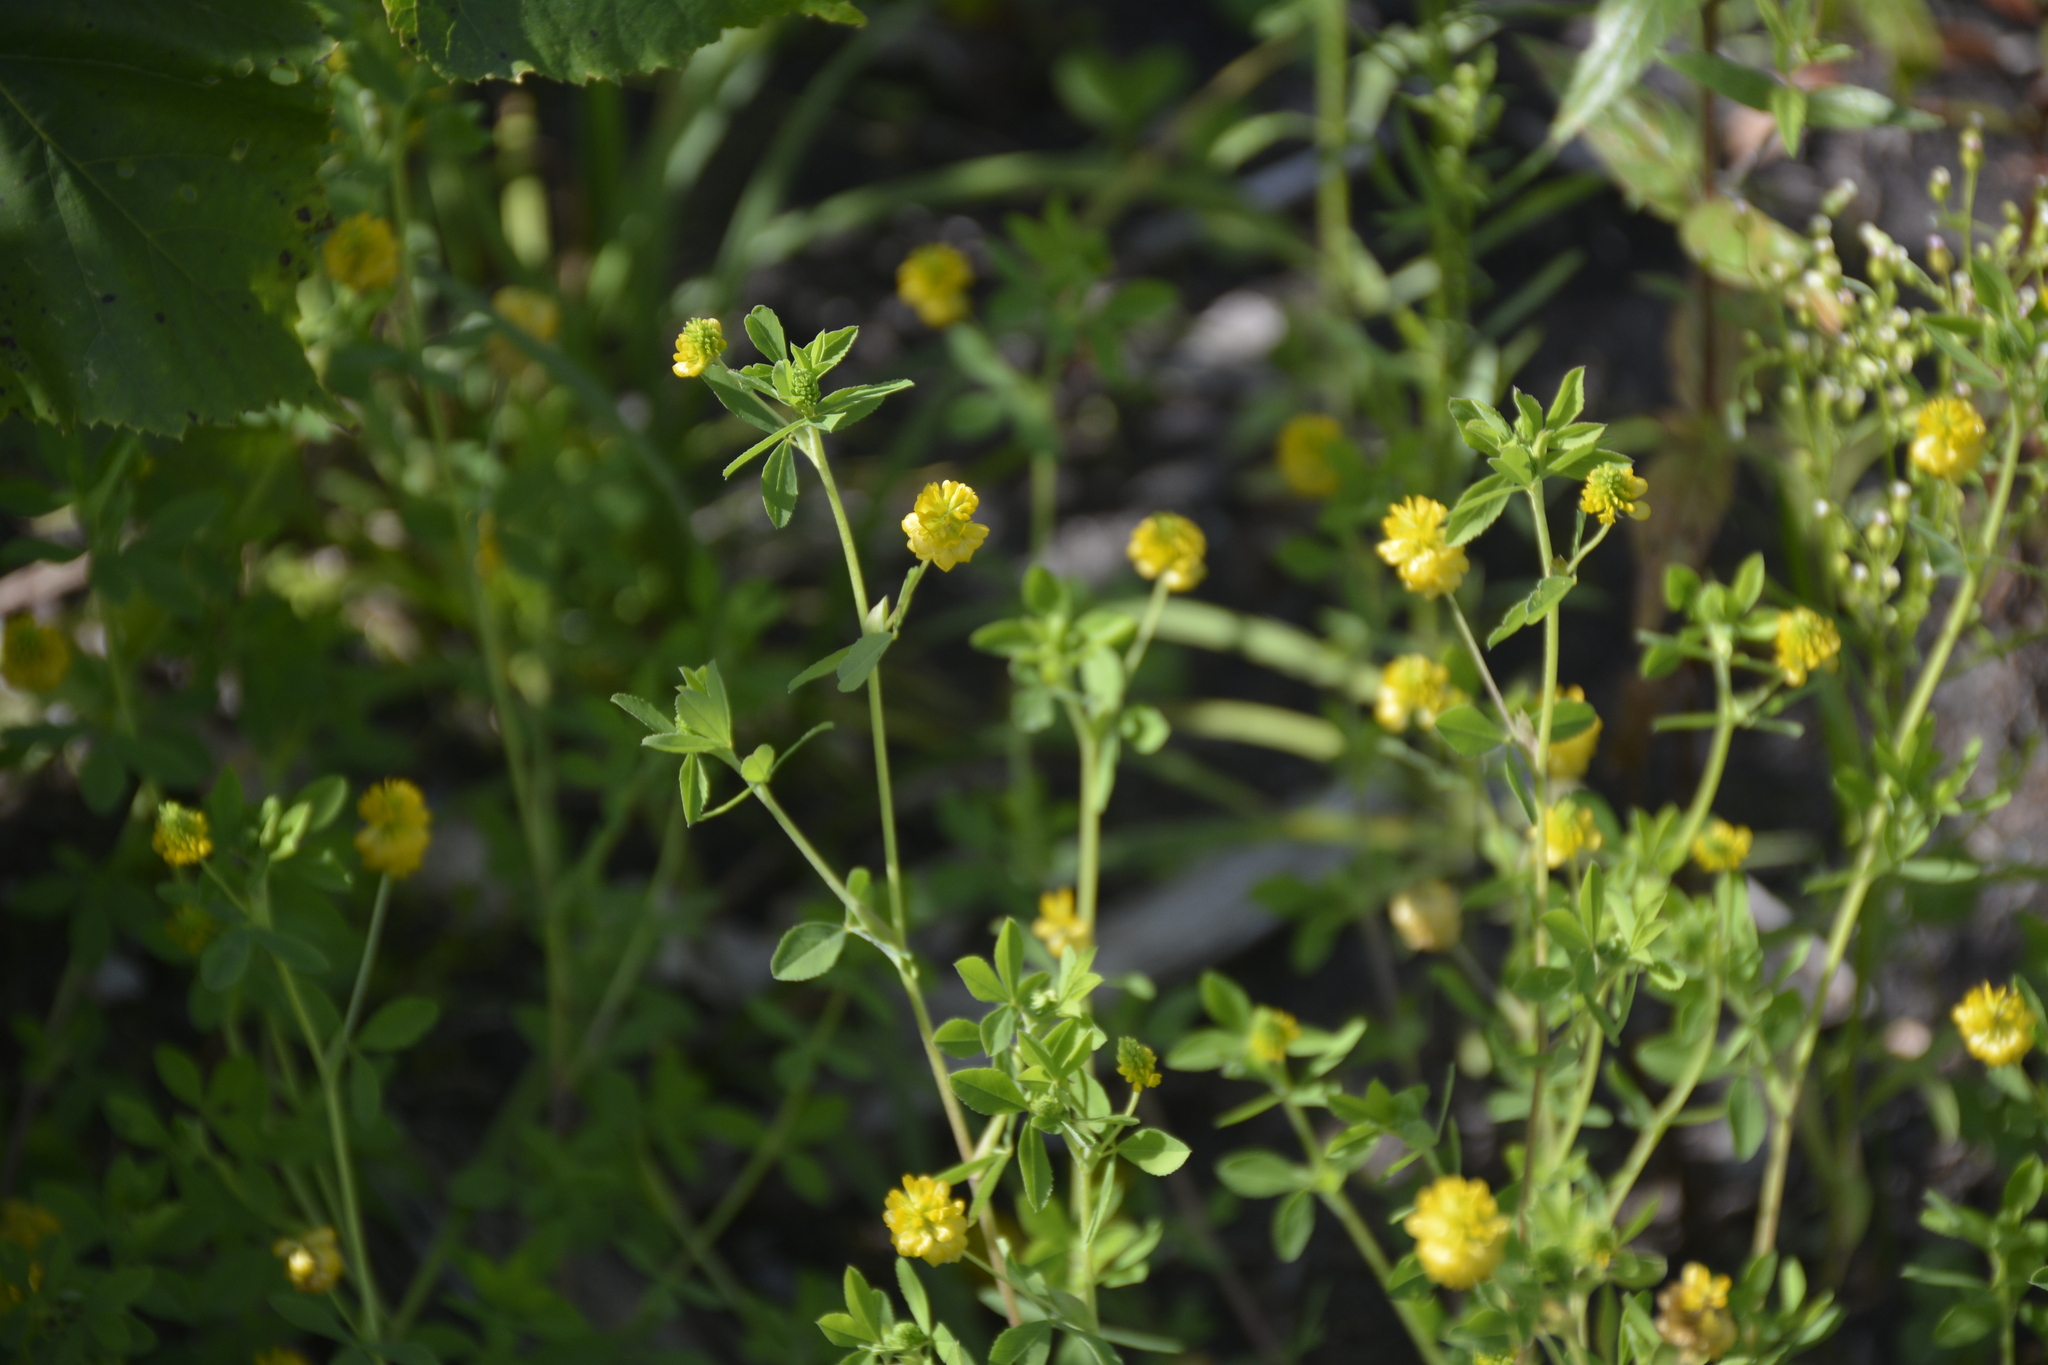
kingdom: Plantae
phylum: Tracheophyta
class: Magnoliopsida
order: Fabales
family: Fabaceae
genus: Trifolium
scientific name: Trifolium aureum
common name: Golden clover
